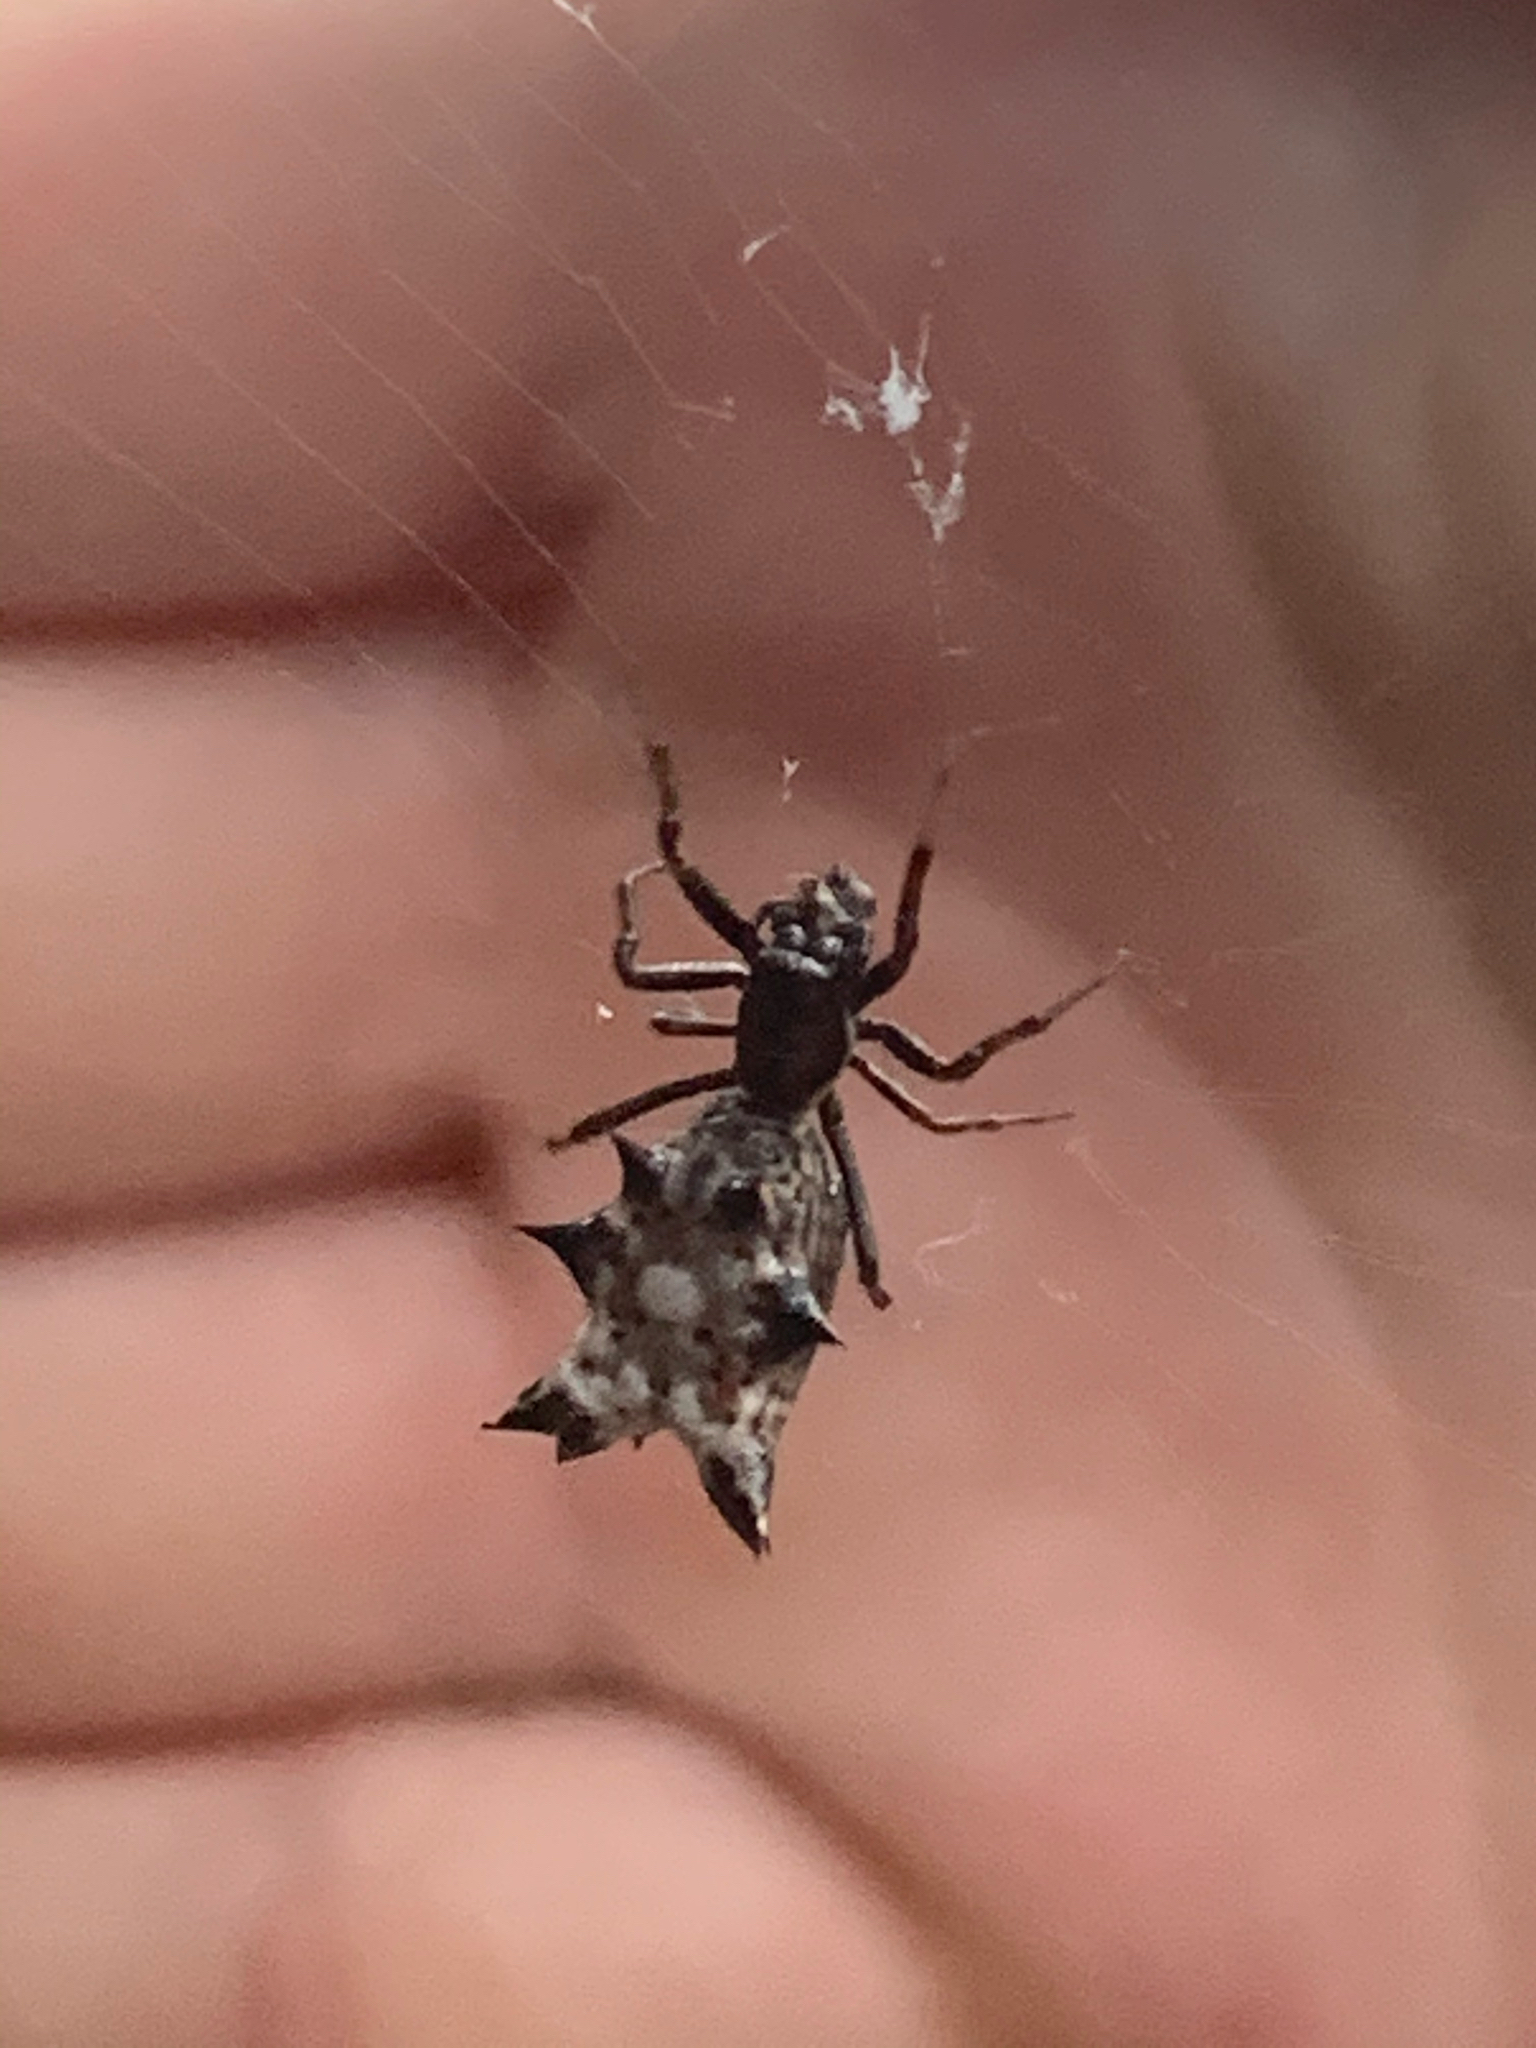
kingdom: Animalia
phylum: Arthropoda
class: Arachnida
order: Araneae
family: Araneidae
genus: Micrathena
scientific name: Micrathena gracilis
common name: Orb weavers
